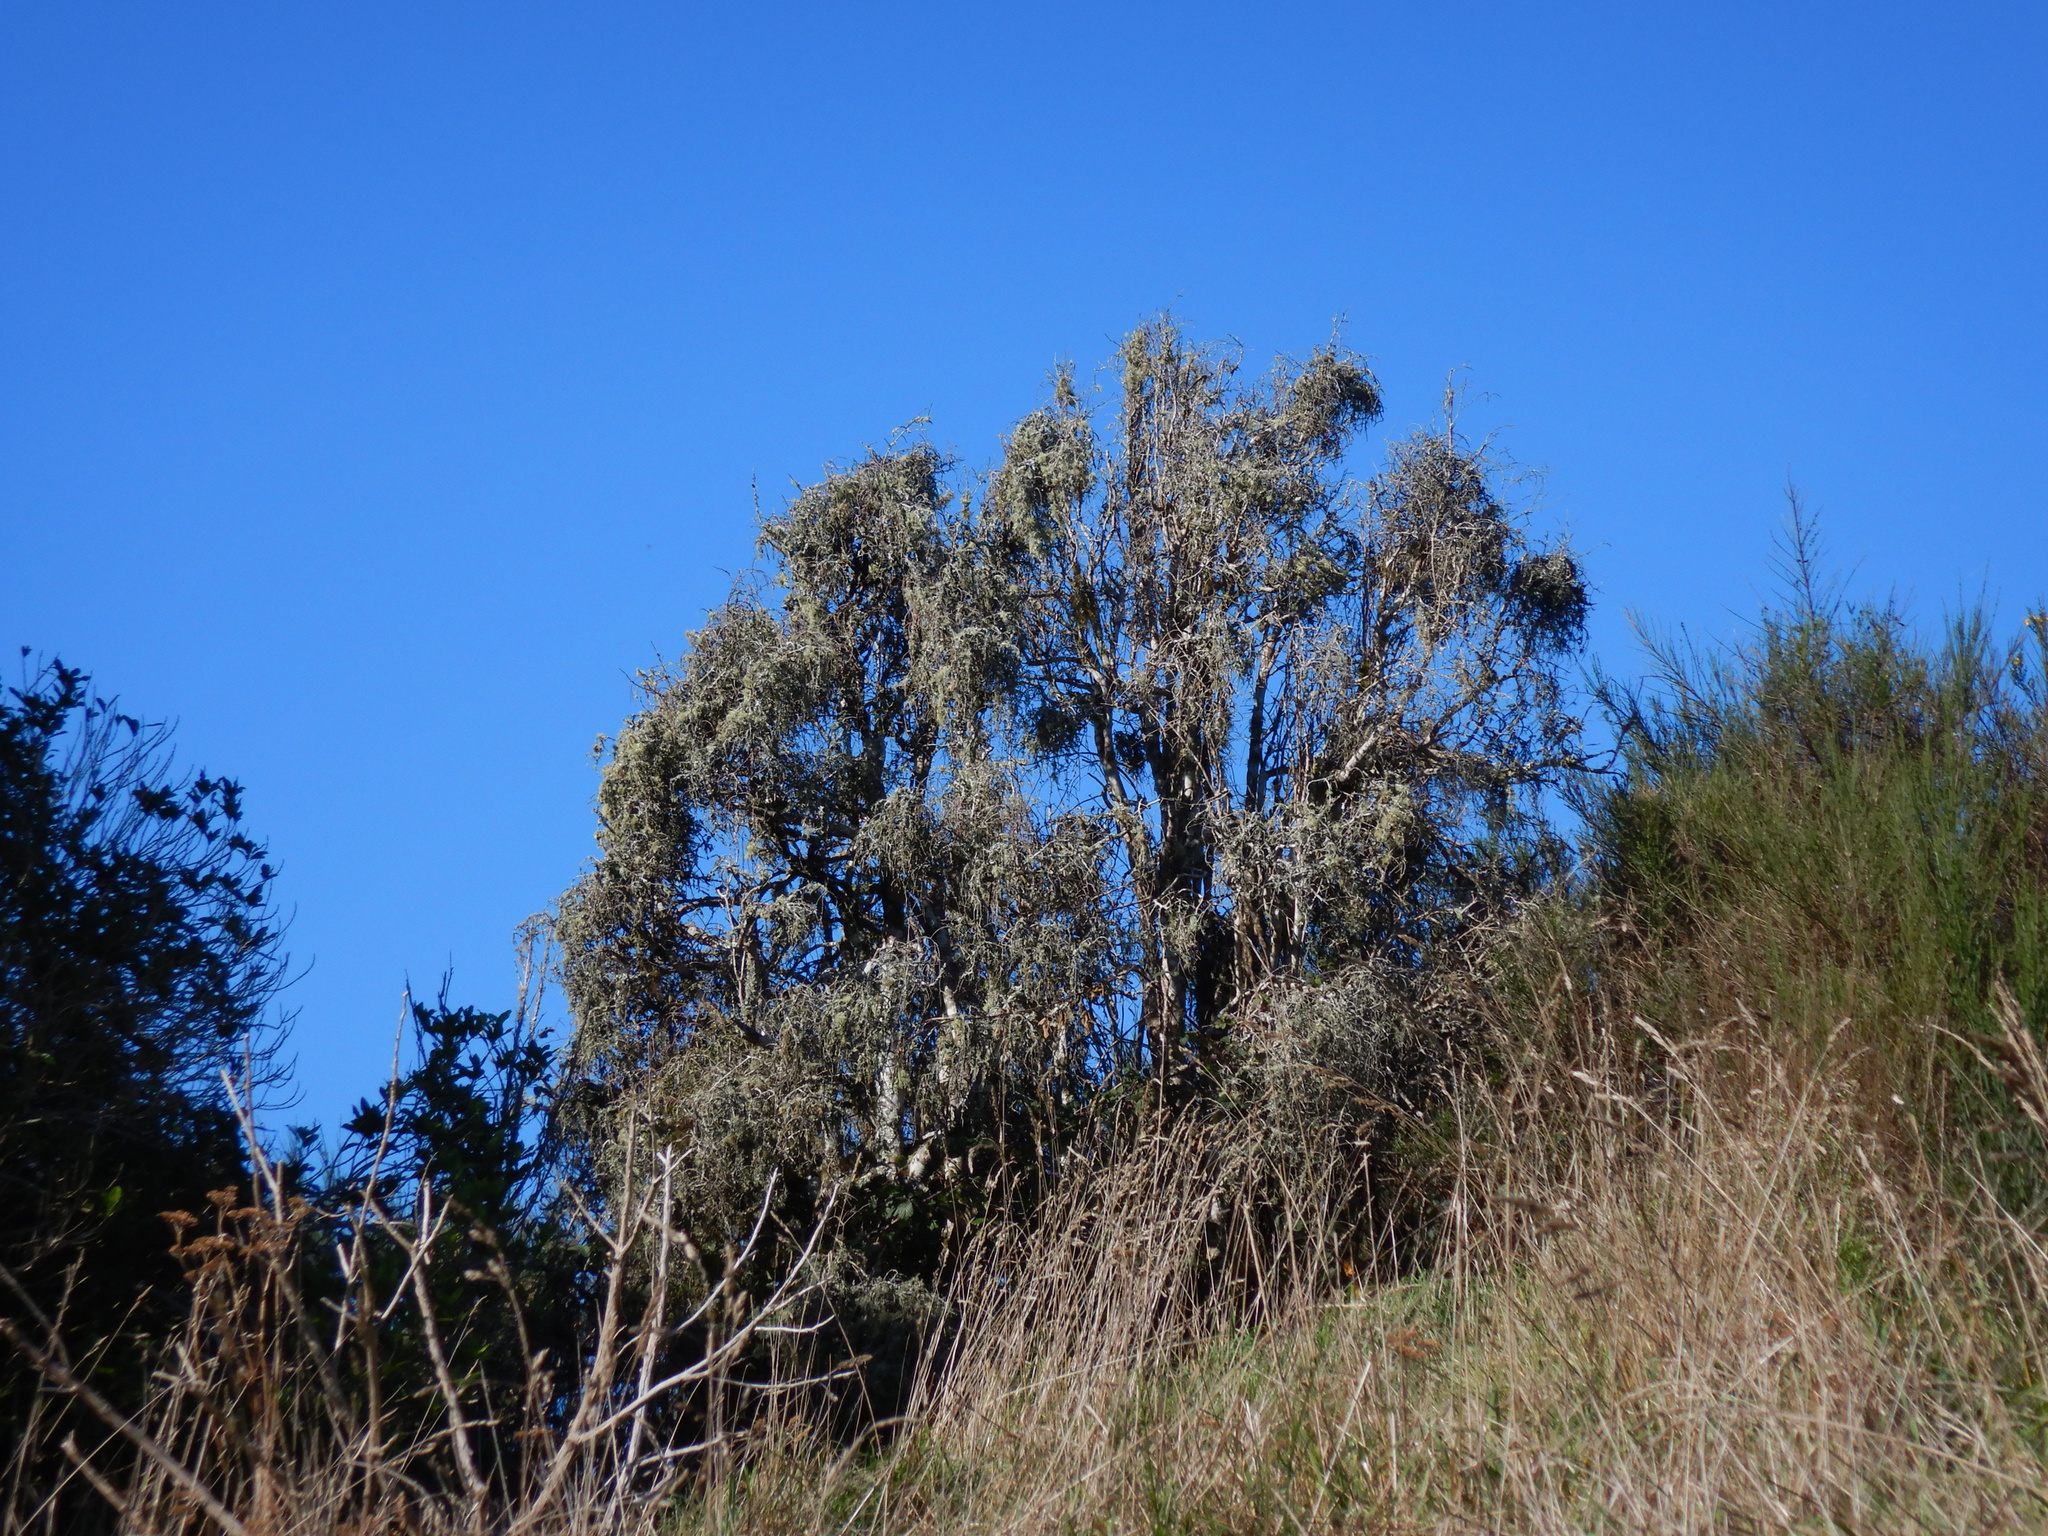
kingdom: Plantae
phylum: Tracheophyta
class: Magnoliopsida
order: Ericales
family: Primulaceae
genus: Myrsine
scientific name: Myrsine divaricata
